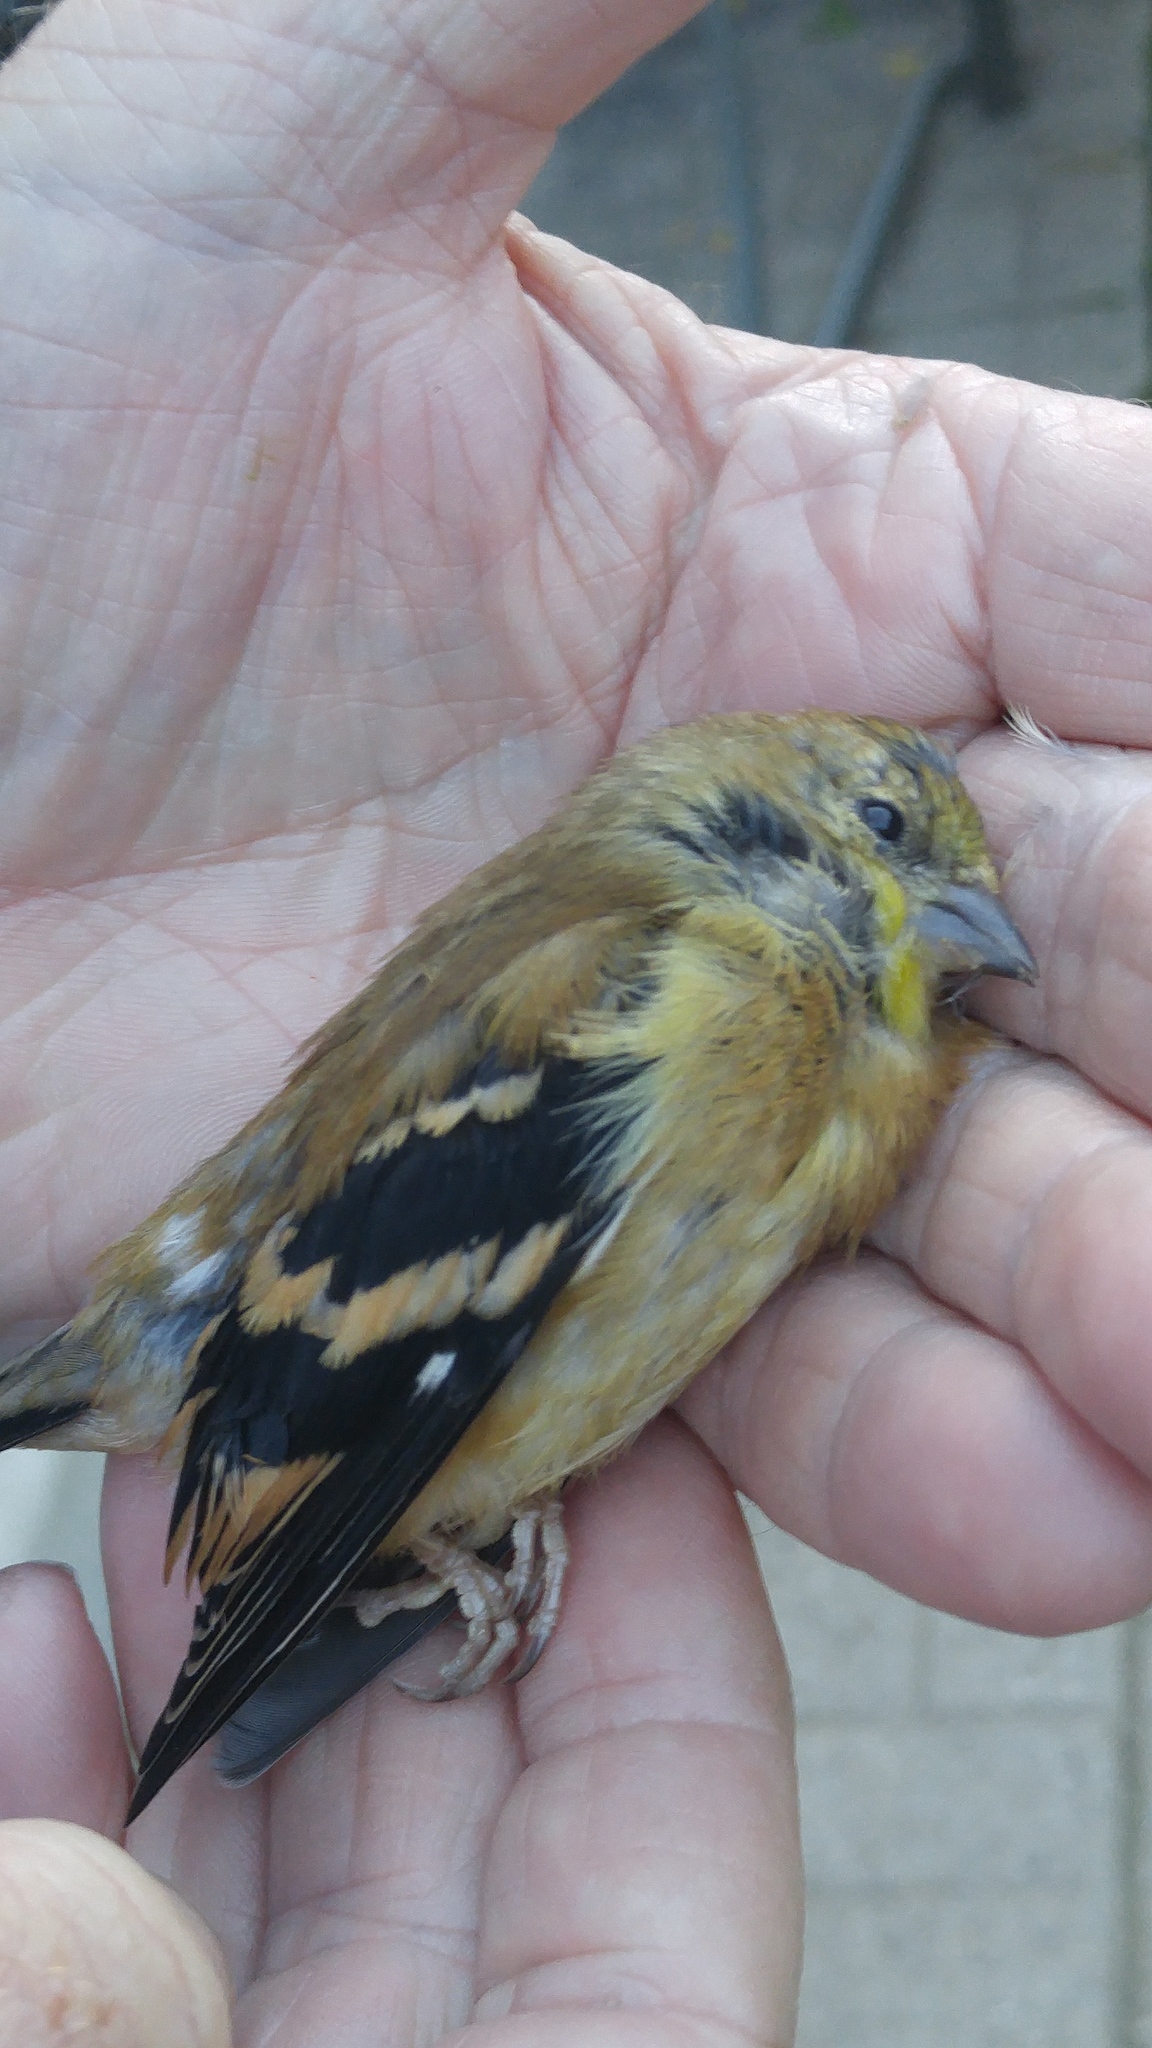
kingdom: Animalia
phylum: Chordata
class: Aves
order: Passeriformes
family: Fringillidae
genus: Spinus
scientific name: Spinus tristis
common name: American goldfinch
